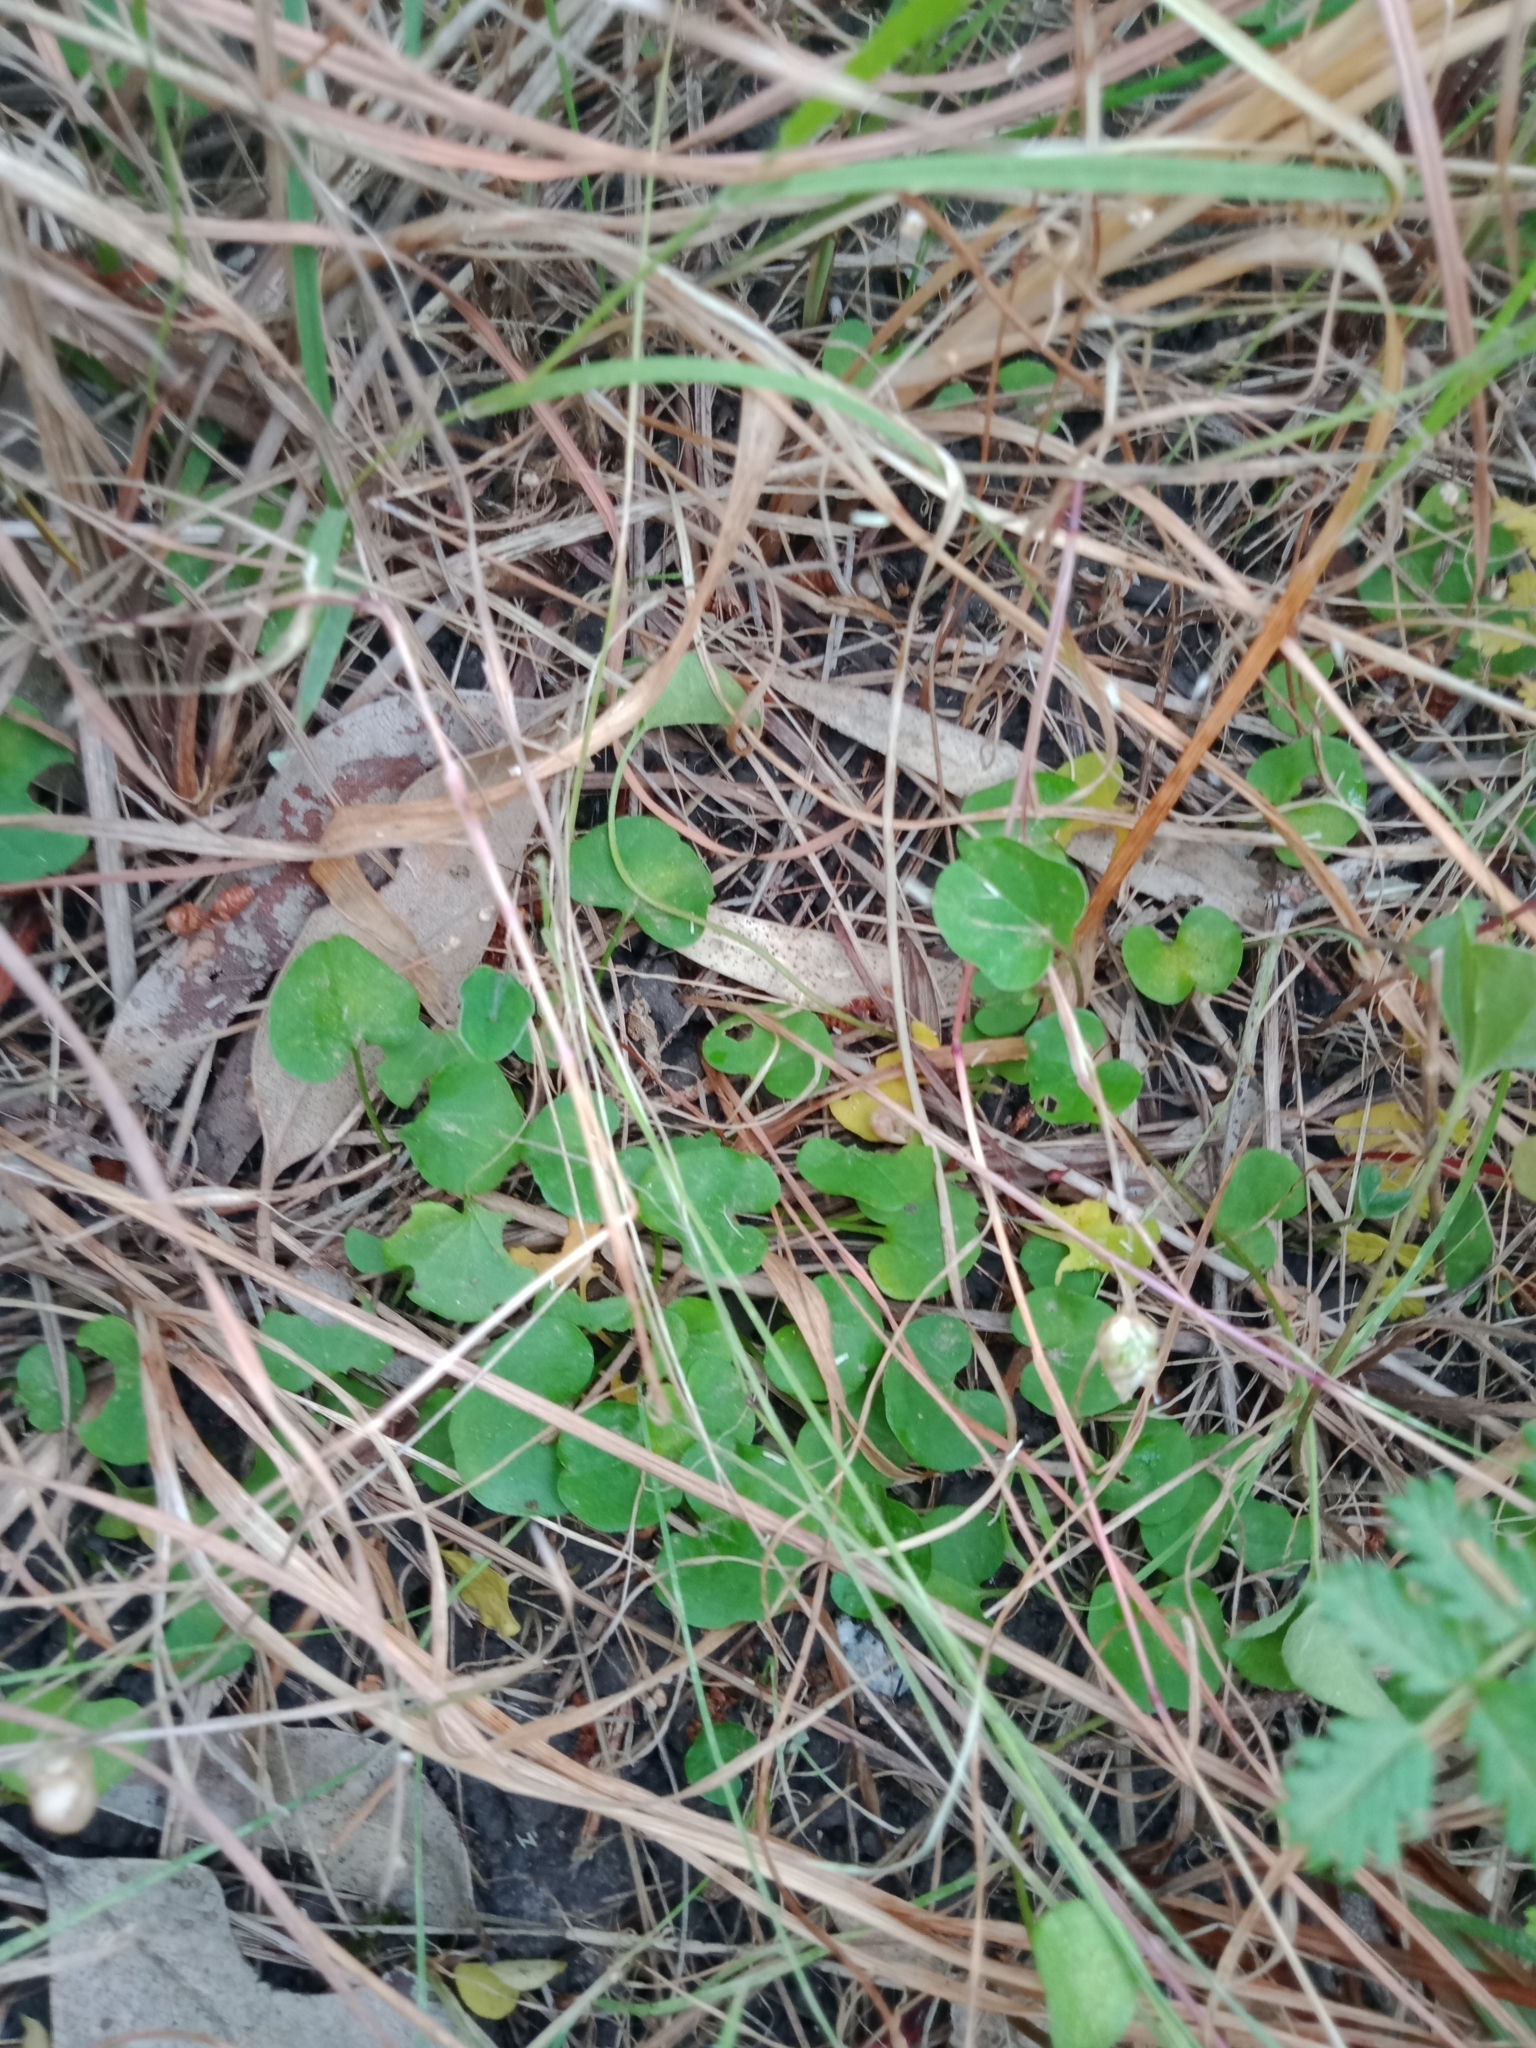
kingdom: Plantae
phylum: Tracheophyta
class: Magnoliopsida
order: Solanales
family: Convolvulaceae
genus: Dichondra
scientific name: Dichondra repens
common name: Kidneyweed
